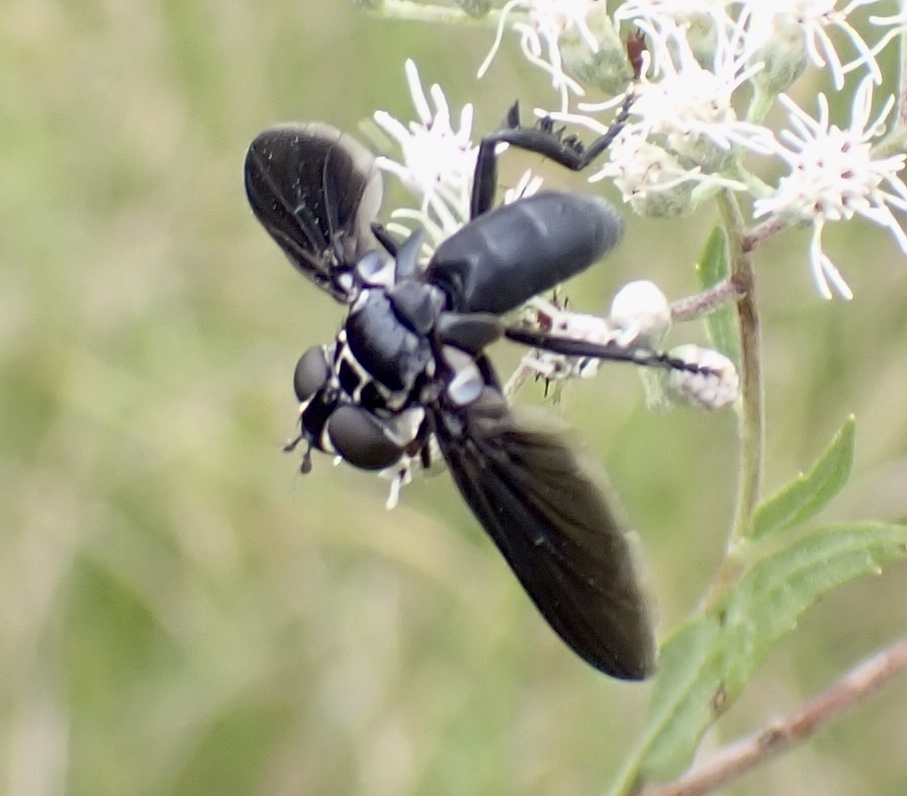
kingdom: Animalia
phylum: Arthropoda
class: Insecta
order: Diptera
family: Tachinidae
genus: Trichopoda
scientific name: Trichopoda lanipes
